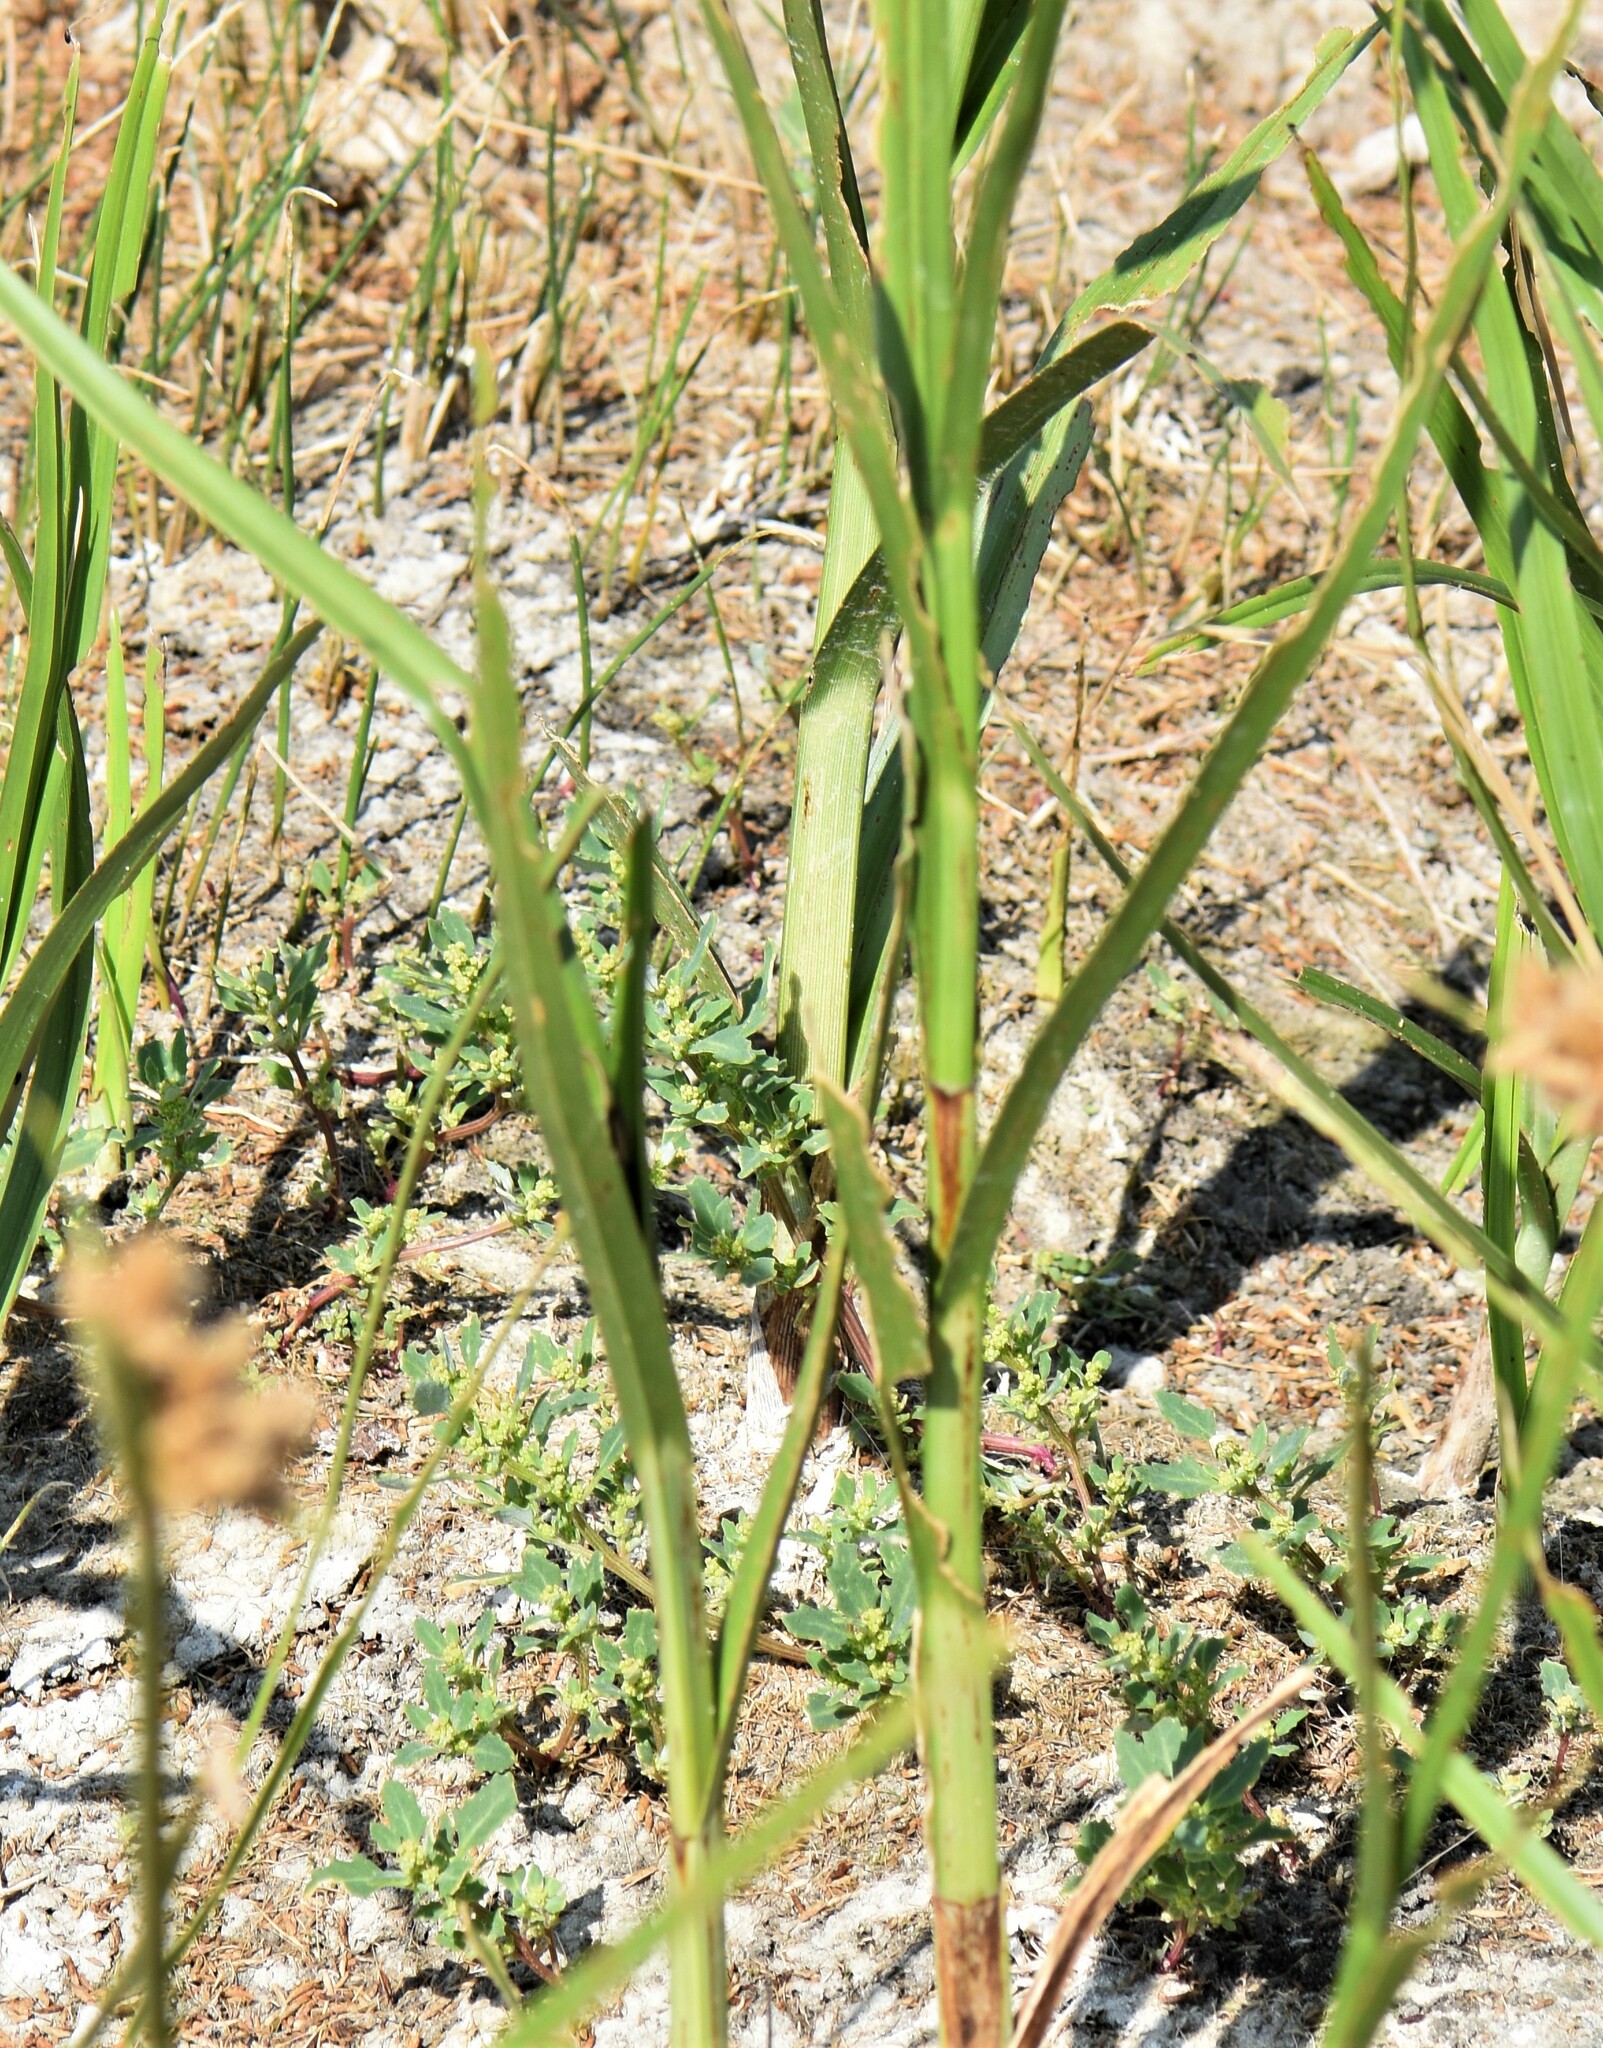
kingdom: Plantae
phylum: Tracheophyta
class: Liliopsida
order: Poales
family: Cyperaceae
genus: Bolboschoenus
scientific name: Bolboschoenus maritimus
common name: Sea club-rush
